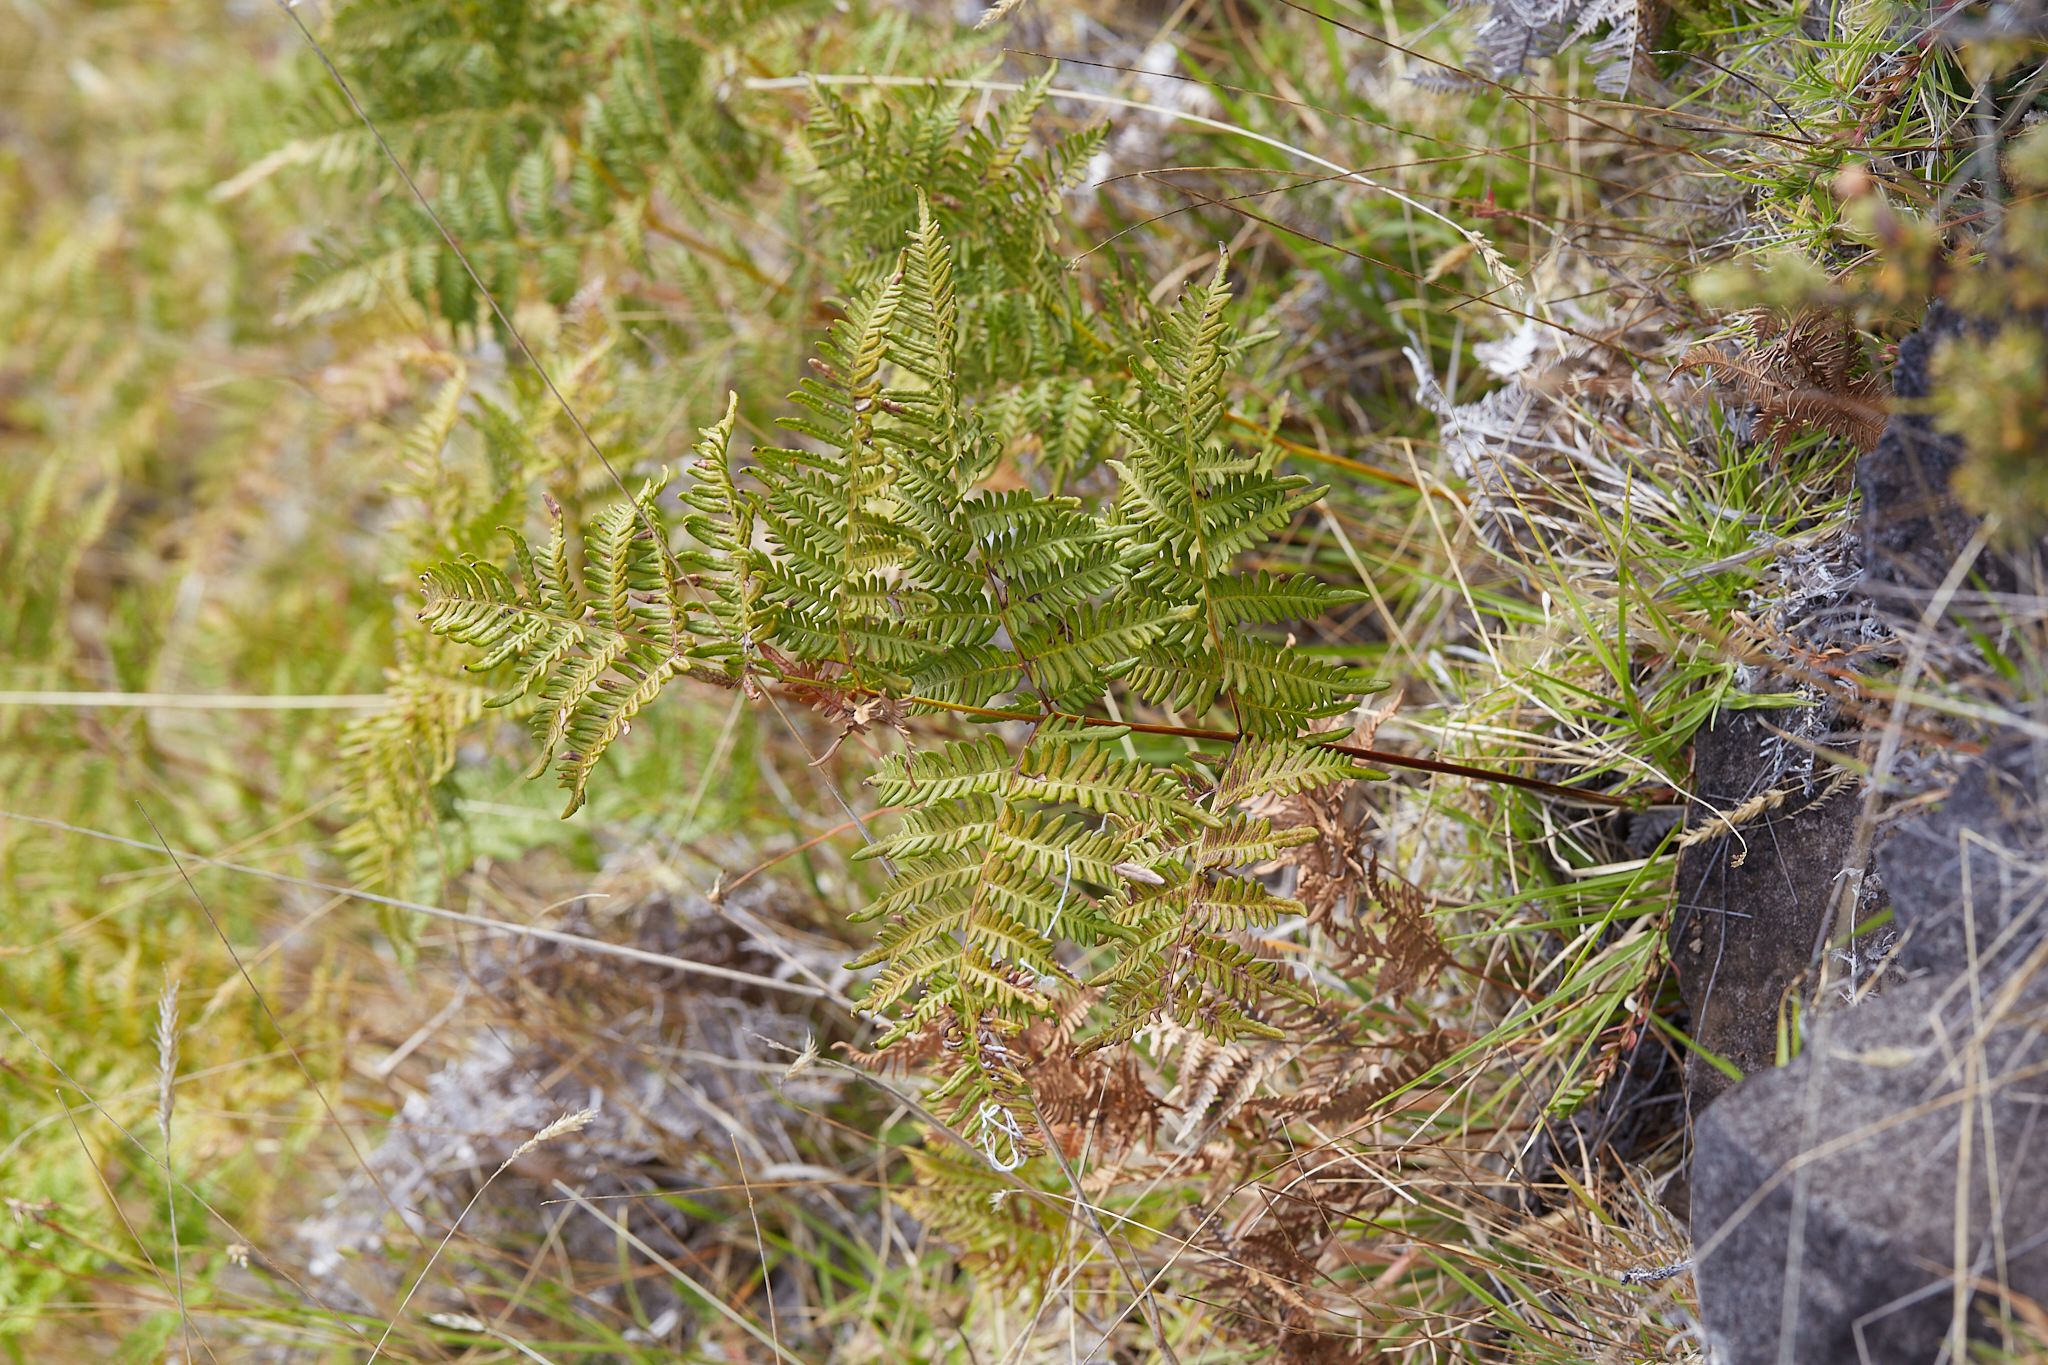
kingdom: Plantae
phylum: Tracheophyta
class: Polypodiopsida
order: Polypodiales
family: Dennstaedtiaceae
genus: Pteridium
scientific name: Pteridium aquilinum
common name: Bracken
